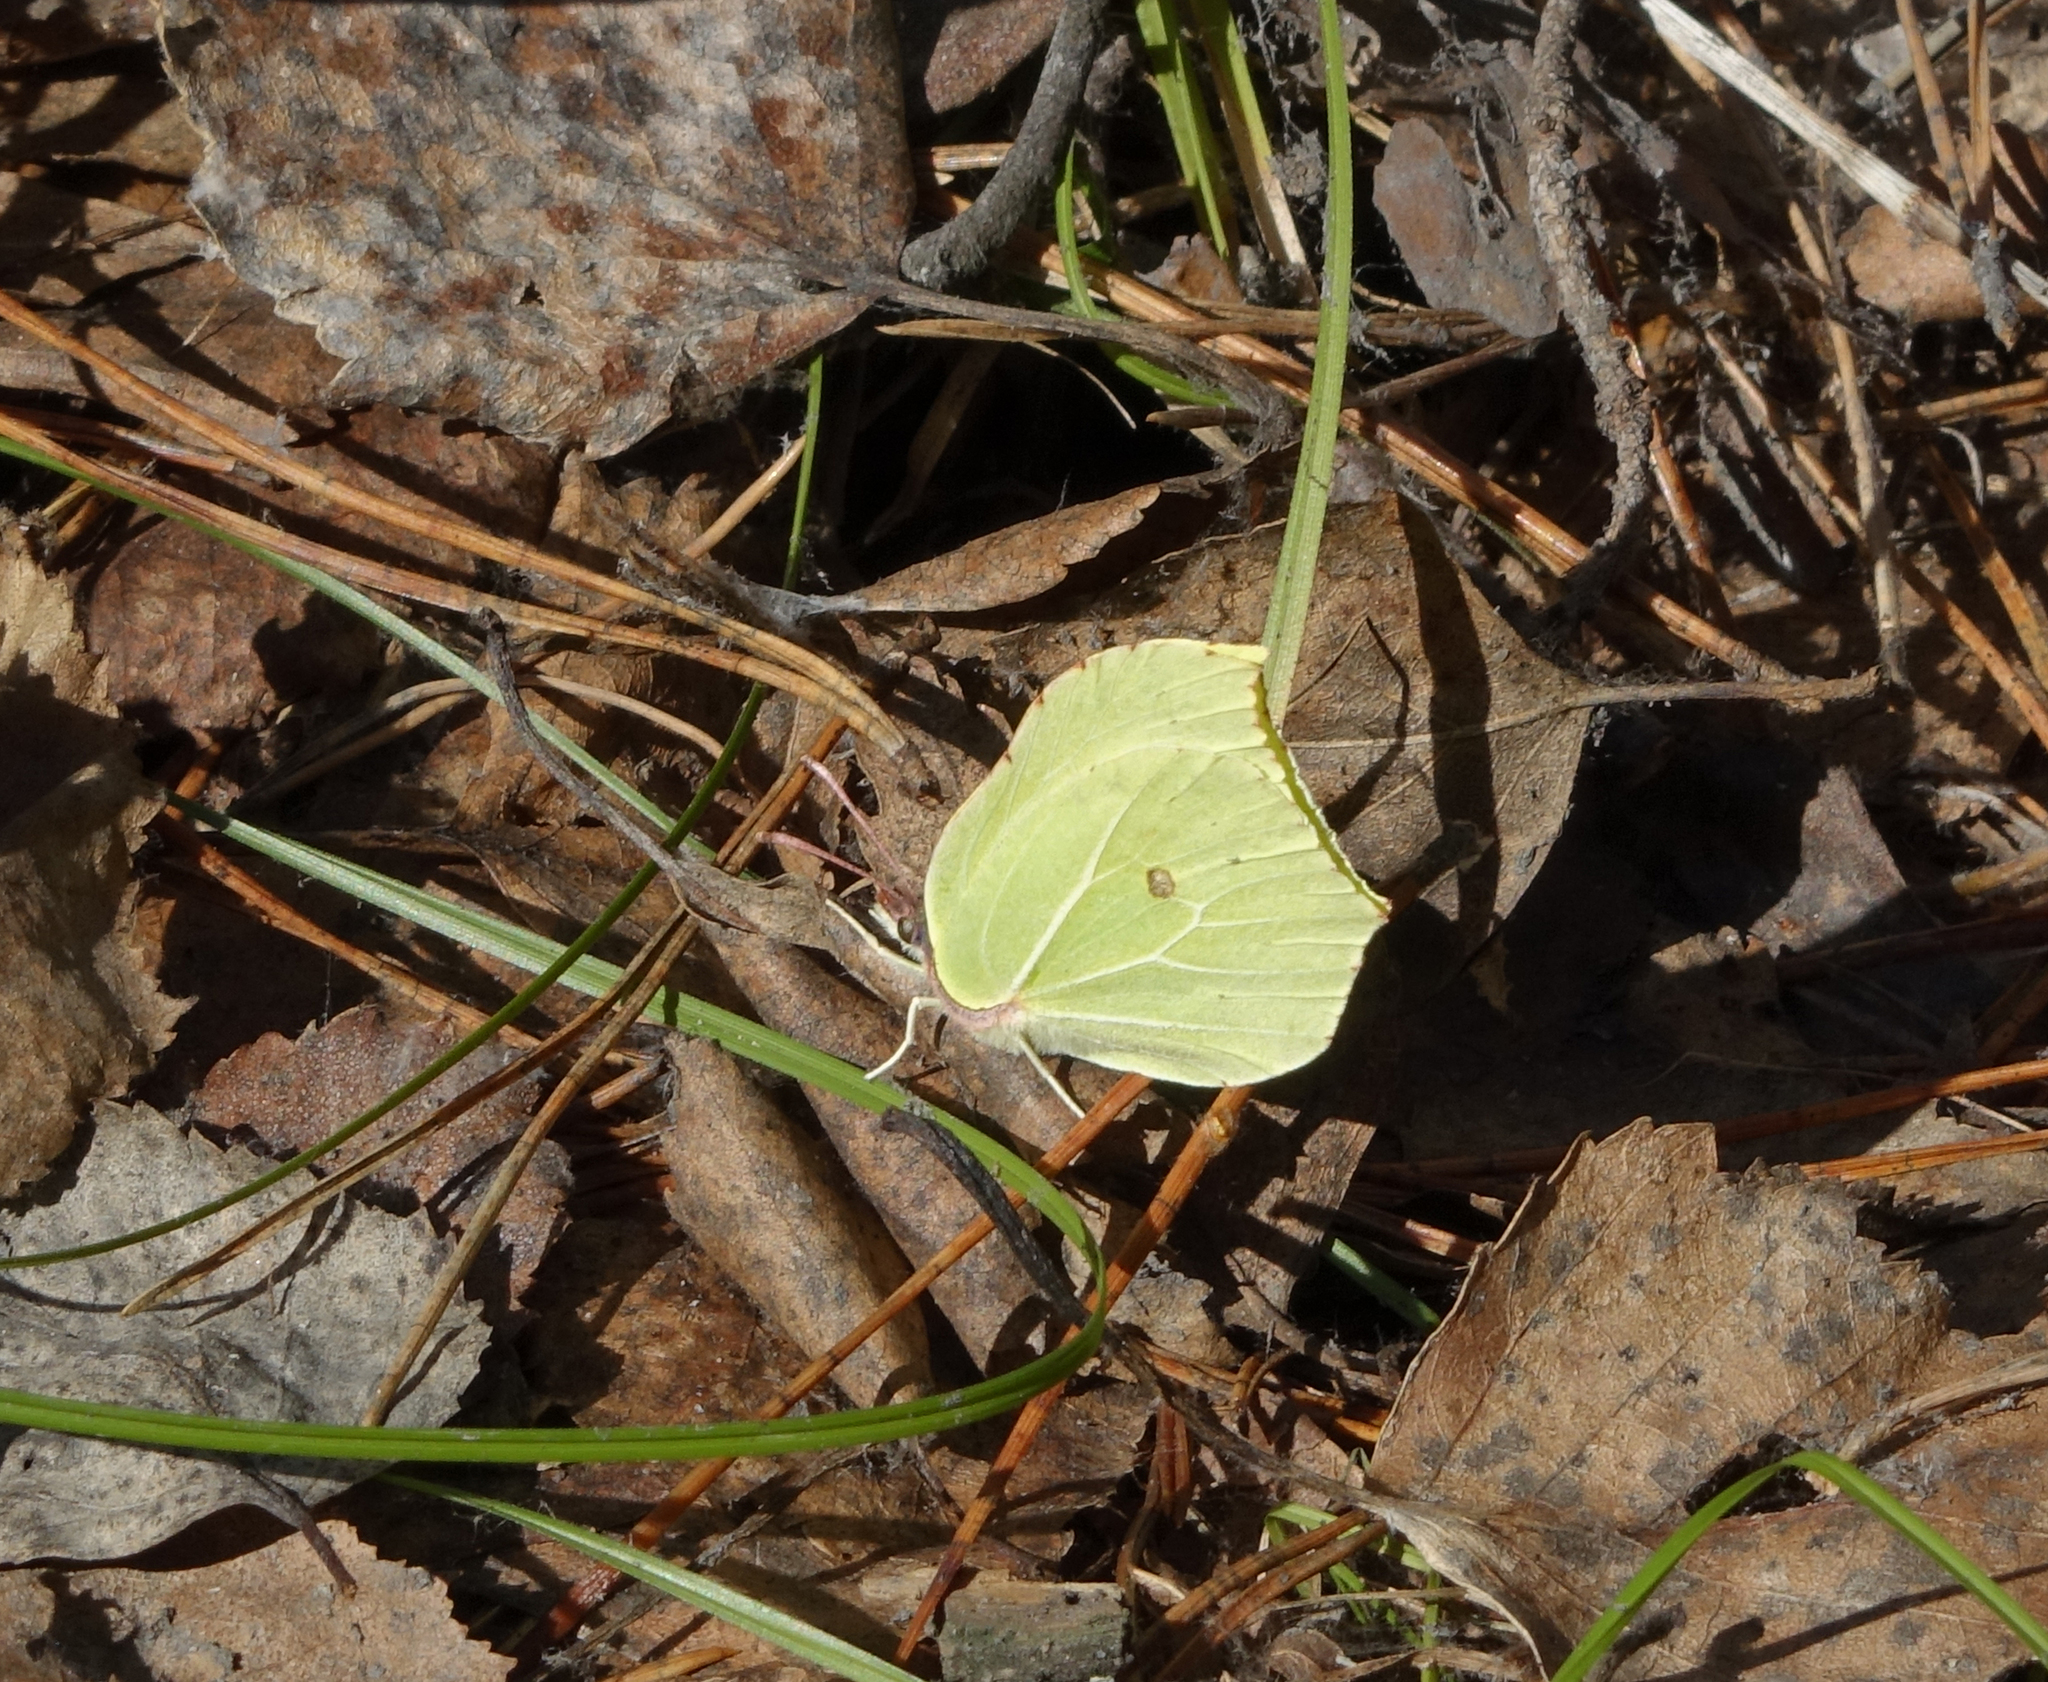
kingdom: Animalia
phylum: Arthropoda
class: Insecta
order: Lepidoptera
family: Pieridae
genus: Gonepteryx
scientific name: Gonepteryx rhamni
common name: Brimstone
